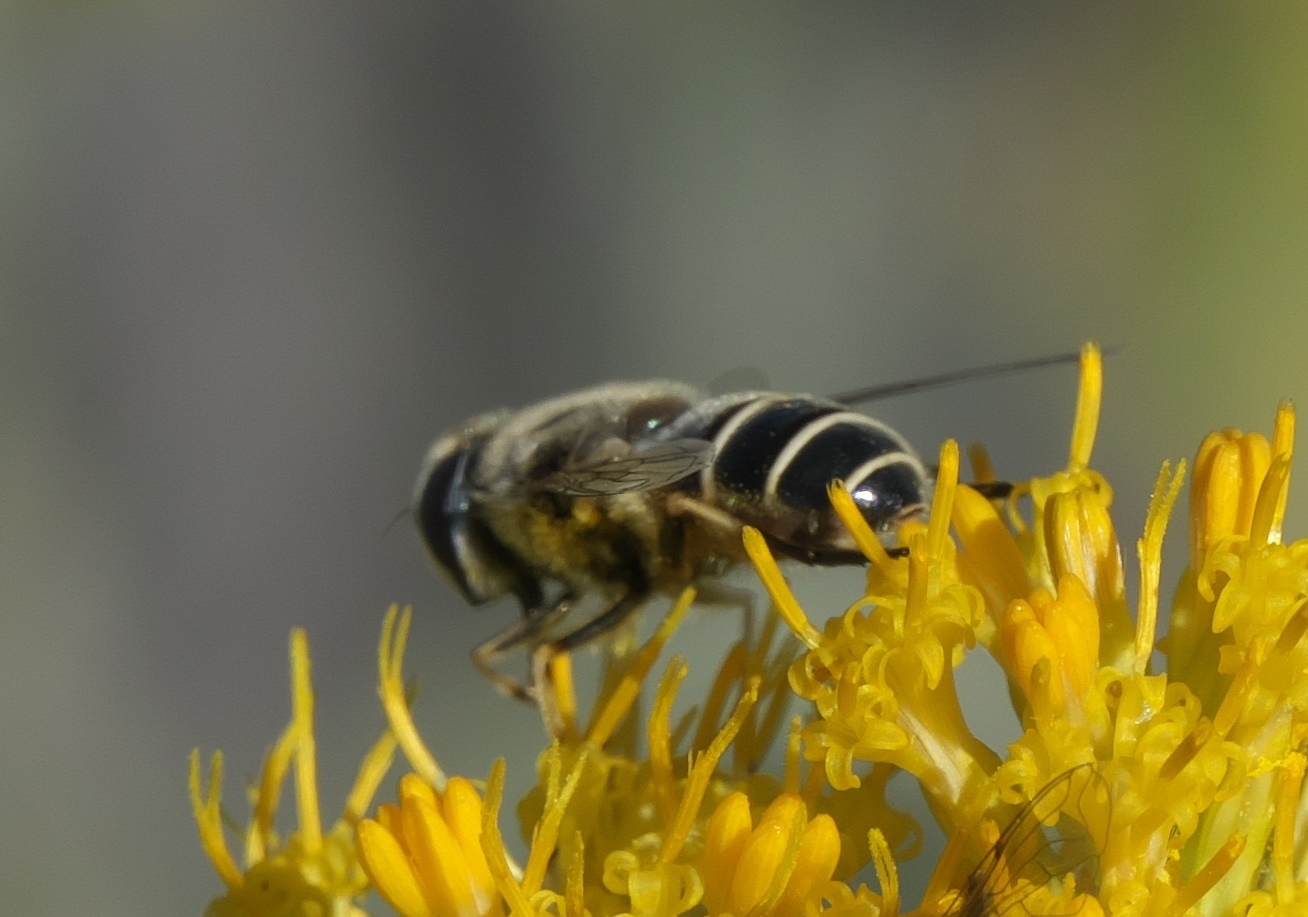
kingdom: Animalia
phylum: Arthropoda
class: Insecta
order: Diptera
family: Syrphidae
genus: Eristalis
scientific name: Eristalis arbustorum
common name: Hover fly
